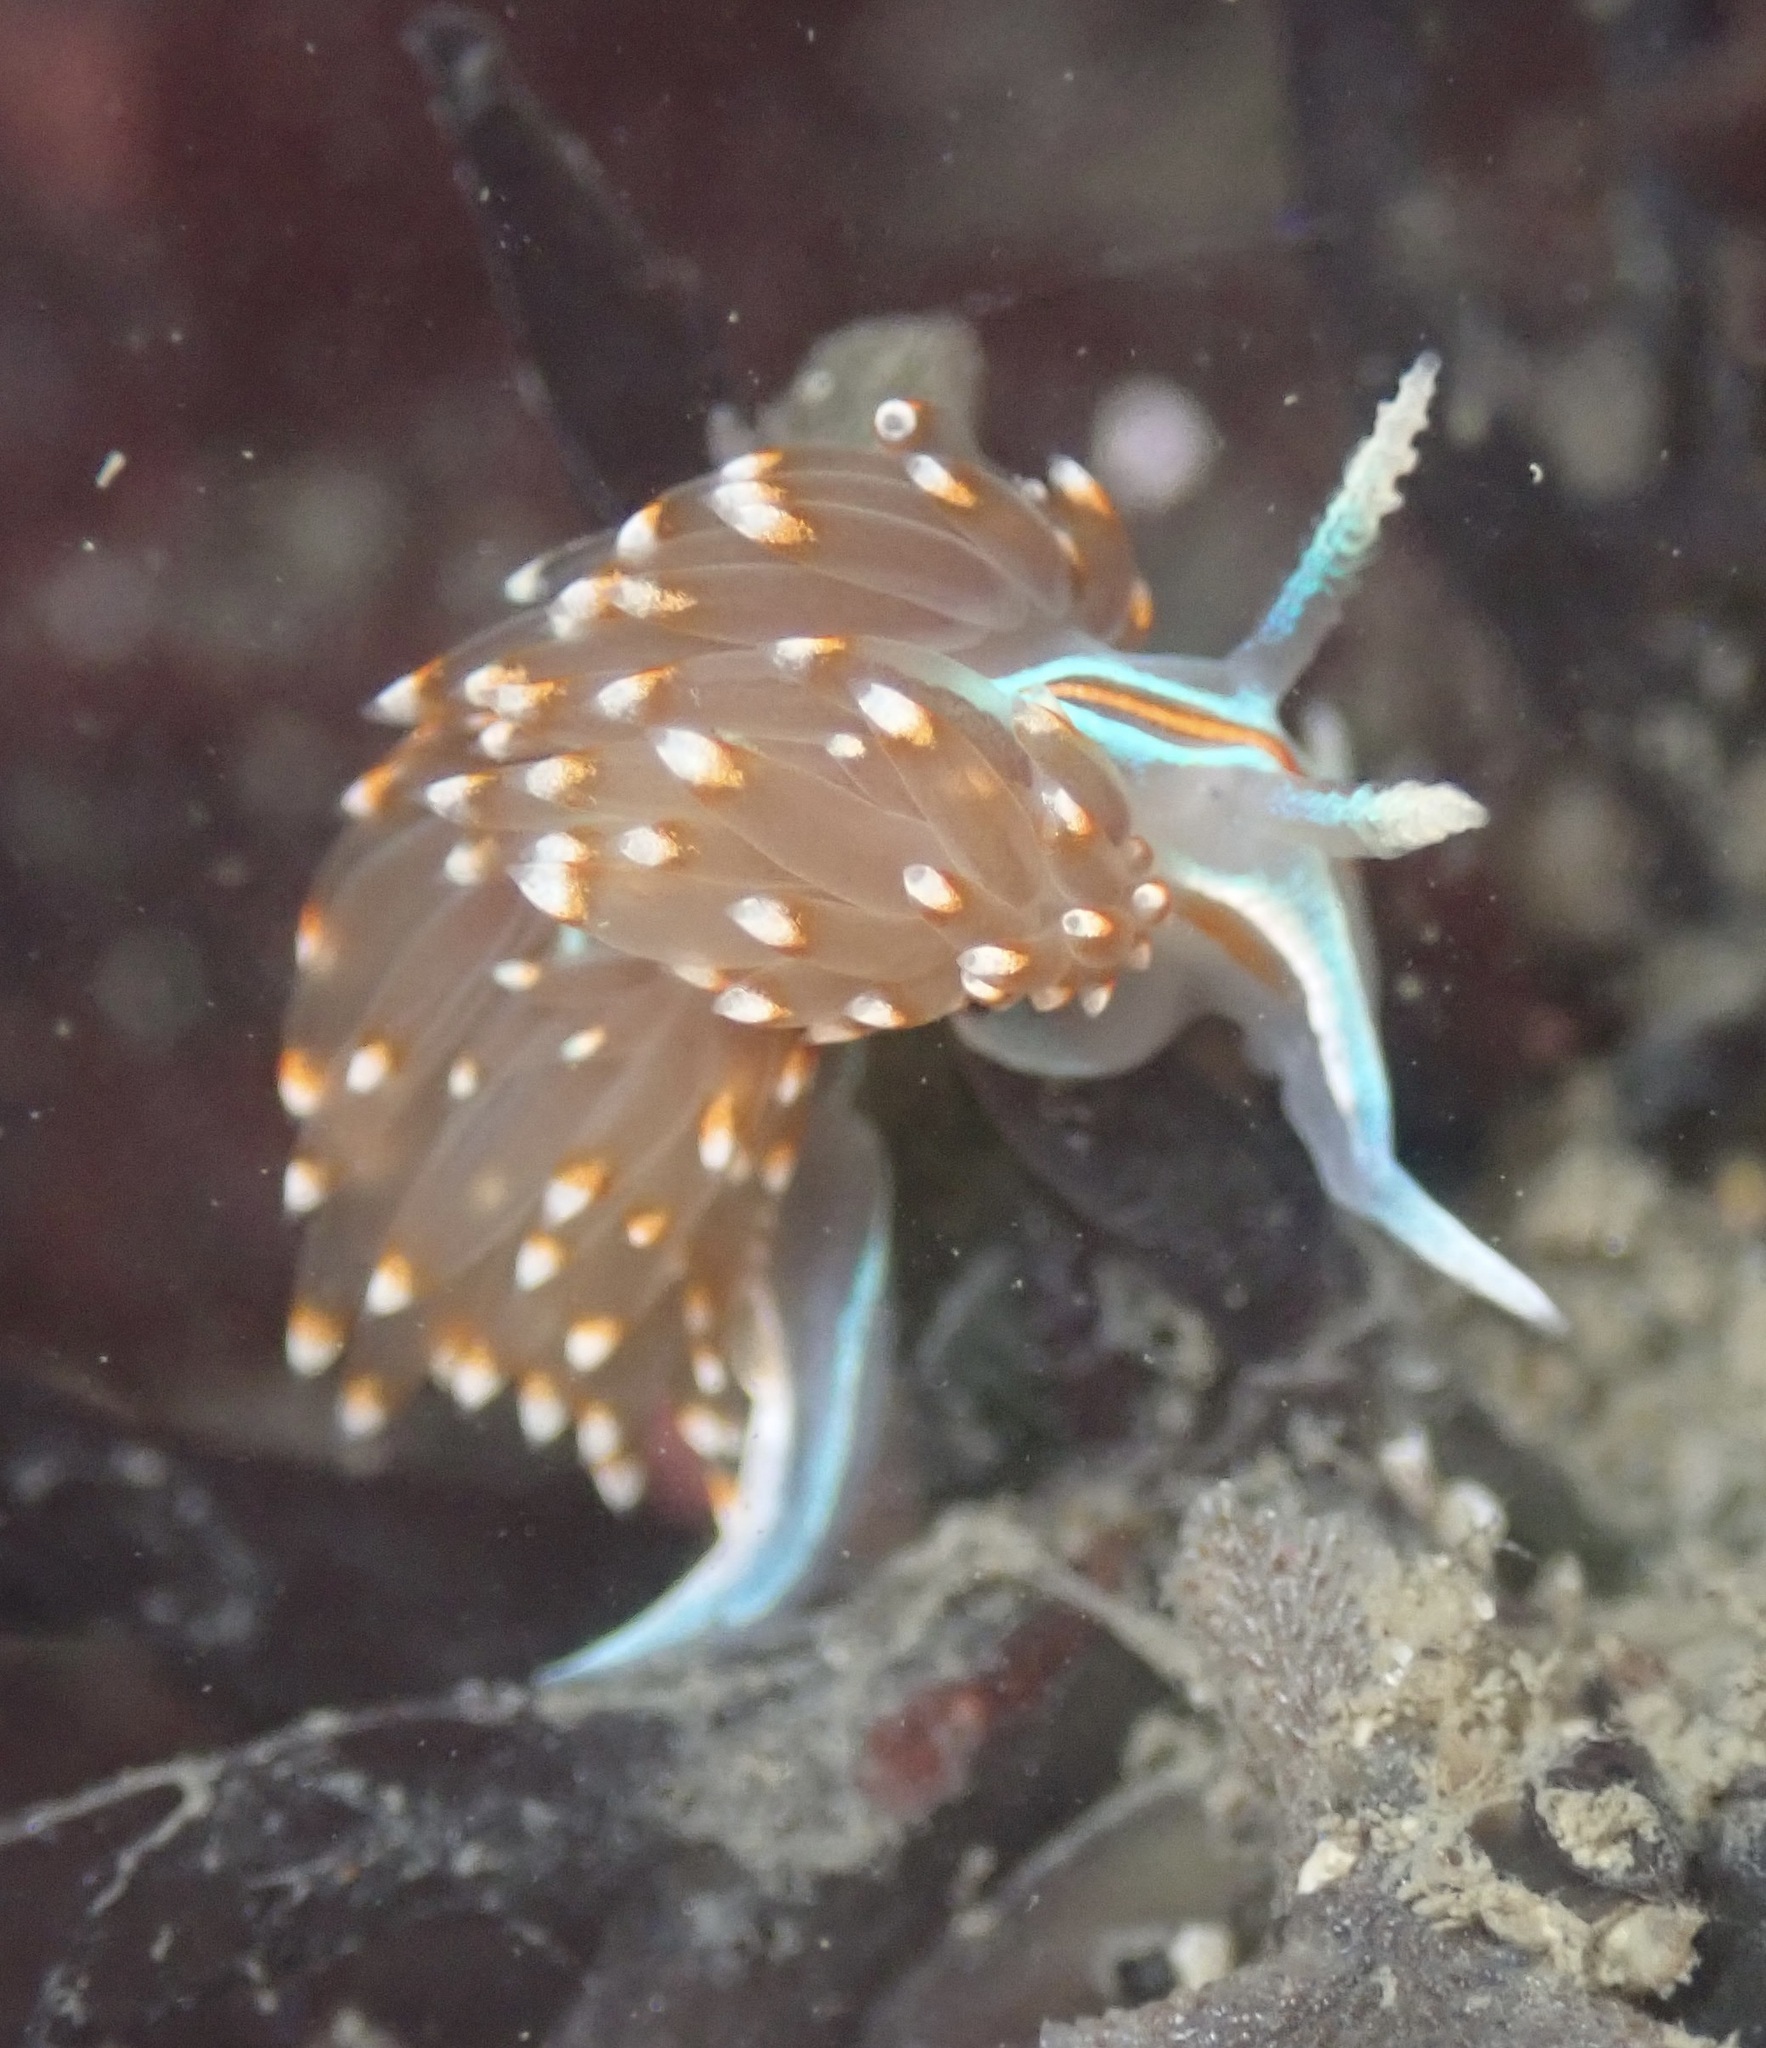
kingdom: Animalia
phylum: Mollusca
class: Gastropoda
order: Nudibranchia
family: Myrrhinidae
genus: Hermissenda
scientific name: Hermissenda opalescens
